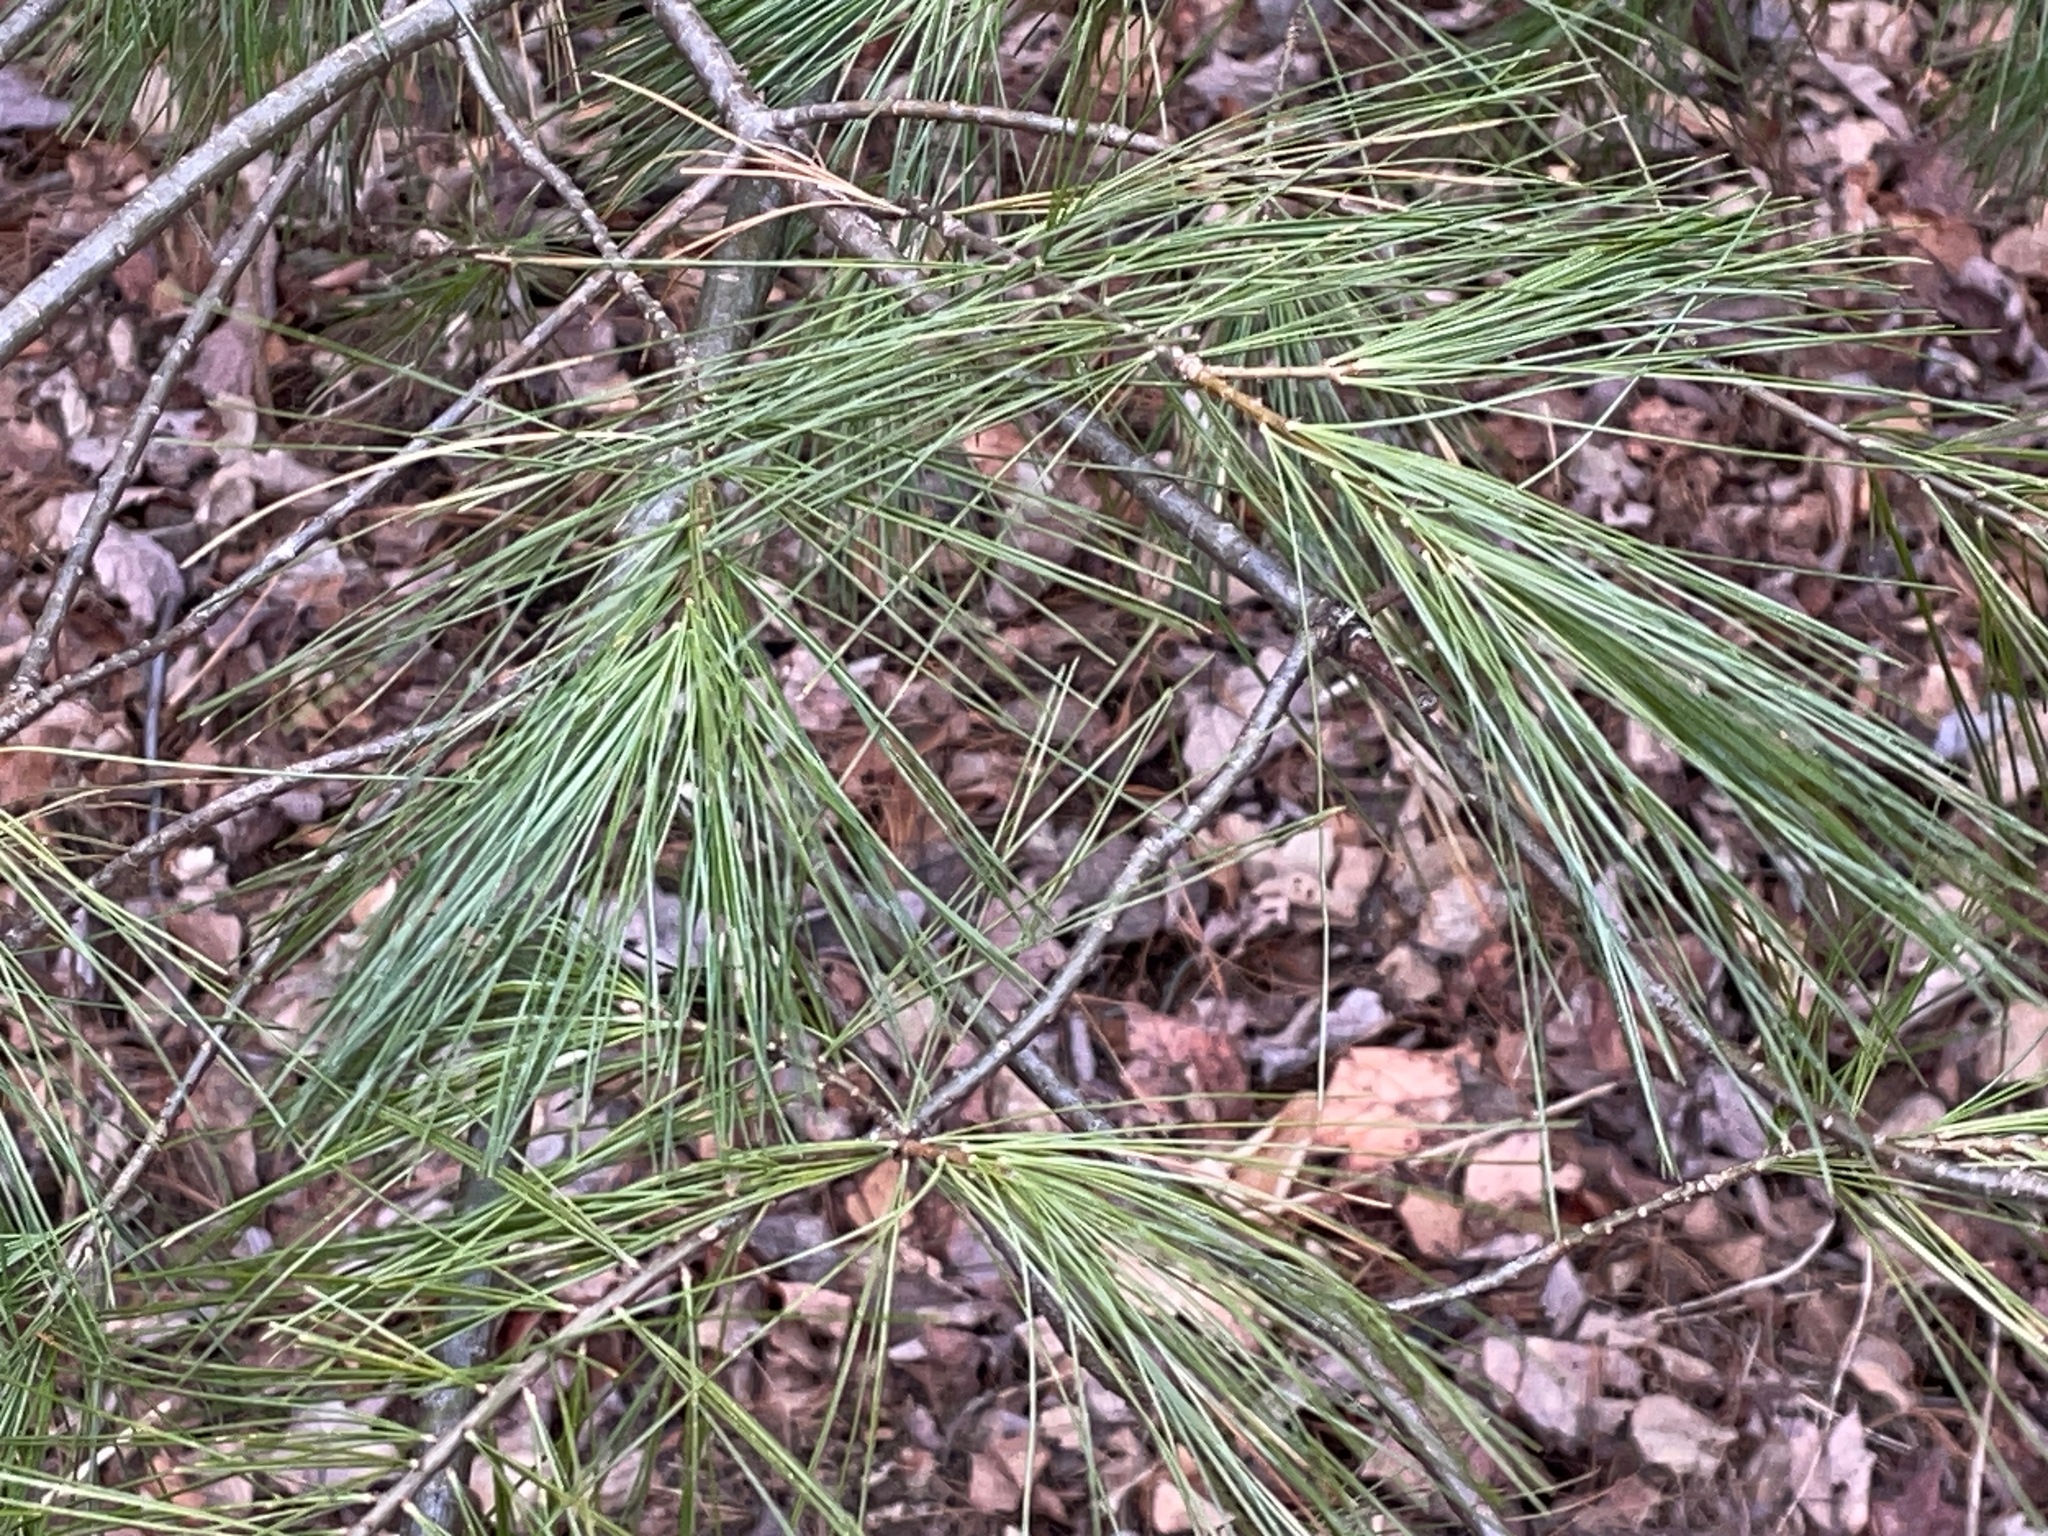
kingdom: Plantae
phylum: Tracheophyta
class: Pinopsida
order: Pinales
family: Pinaceae
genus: Pinus
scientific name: Pinus strobus
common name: Weymouth pine
